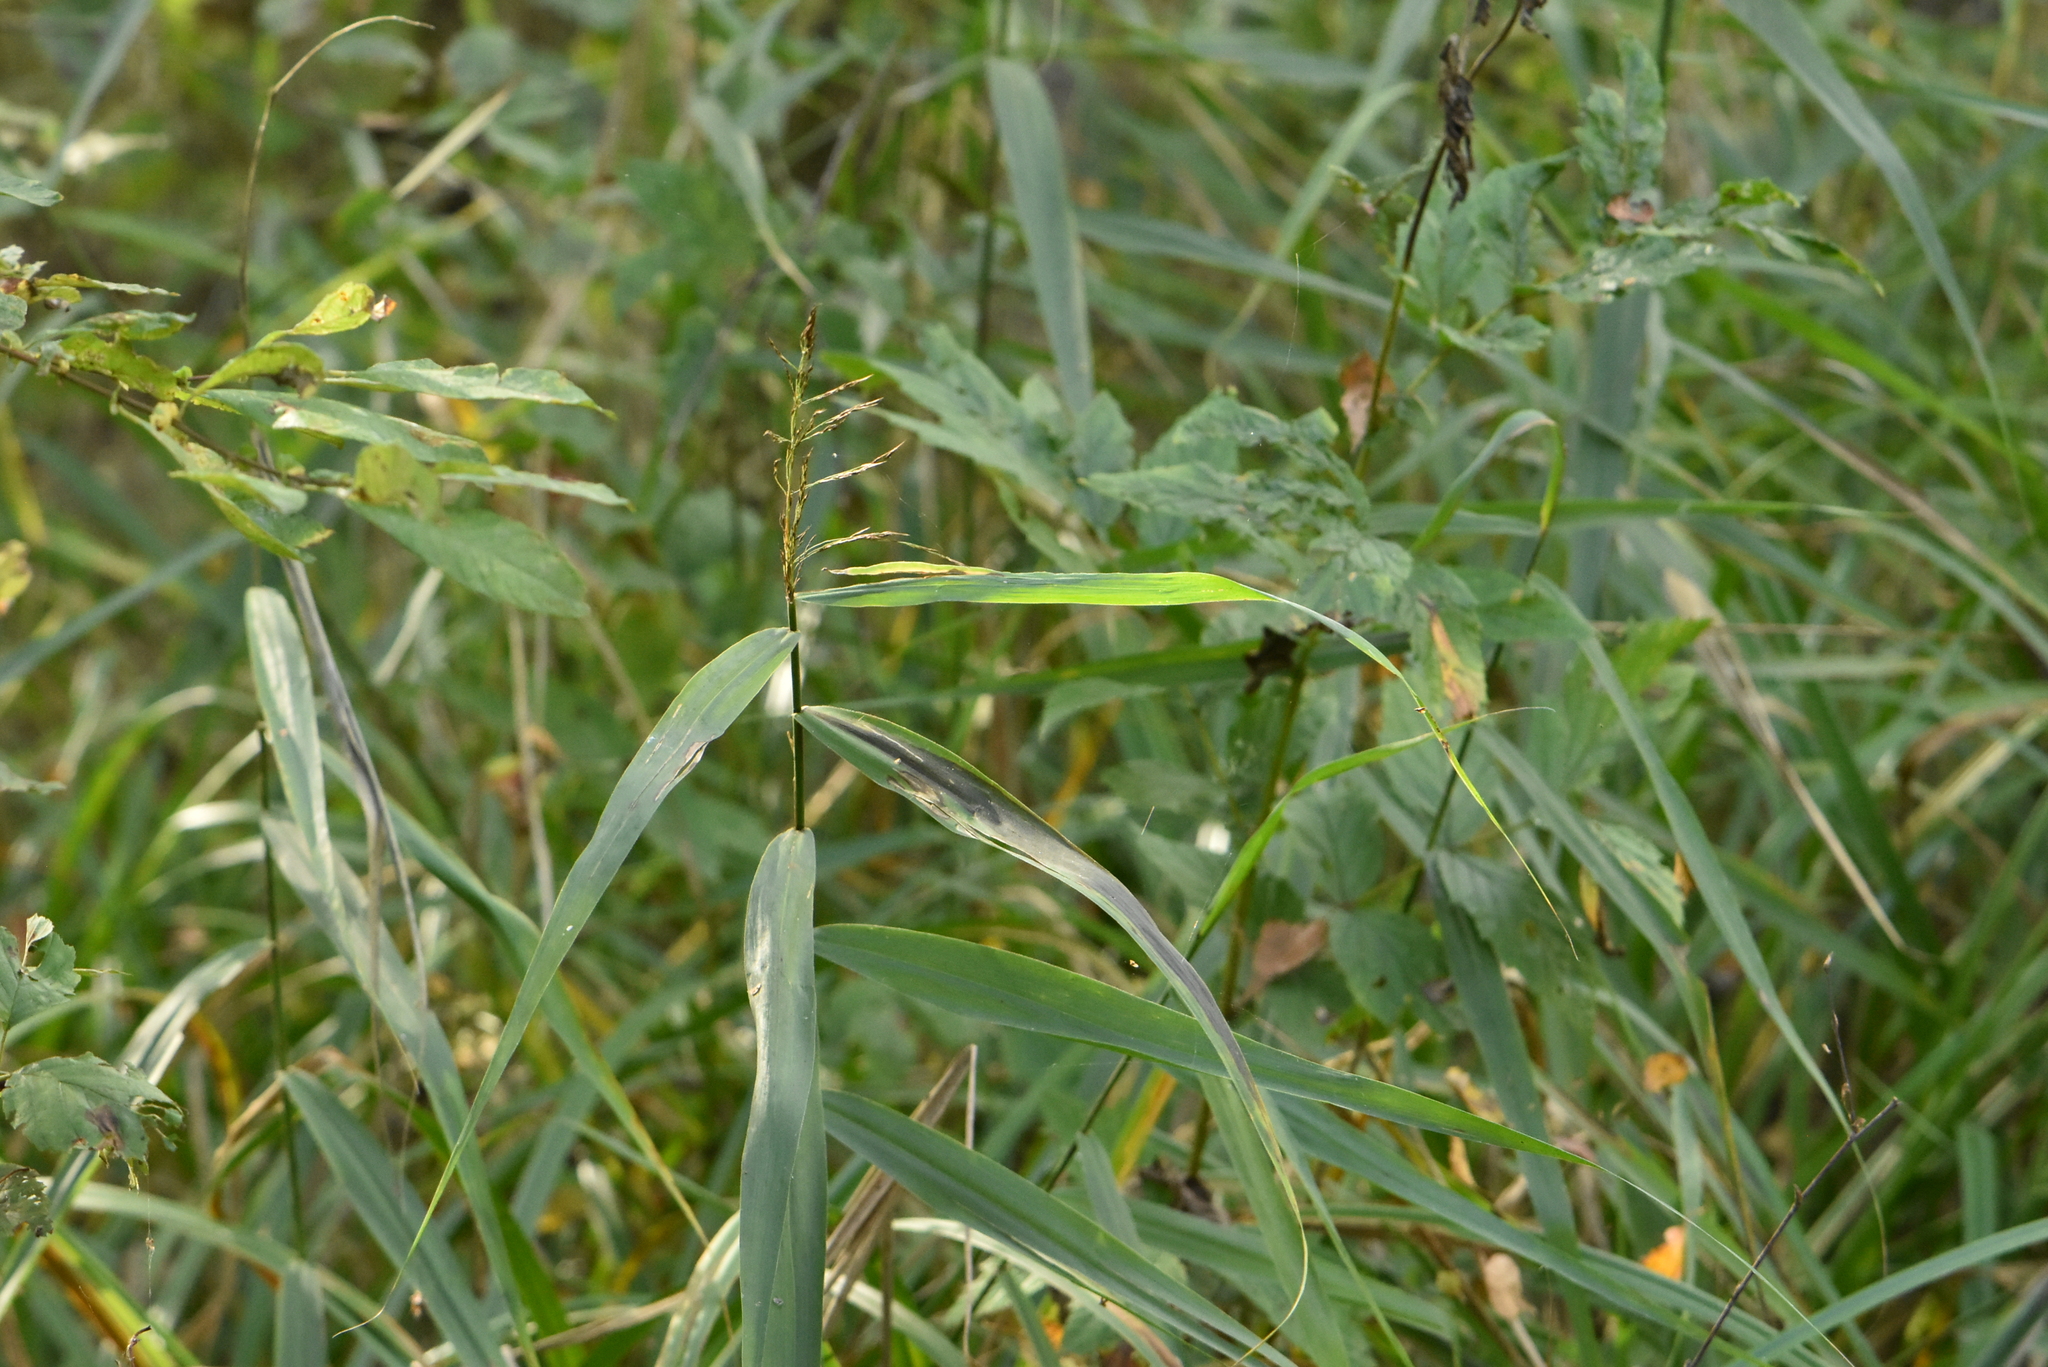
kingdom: Plantae
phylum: Tracheophyta
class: Liliopsida
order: Poales
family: Poaceae
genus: Phragmites
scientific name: Phragmites australis
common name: Common reed
